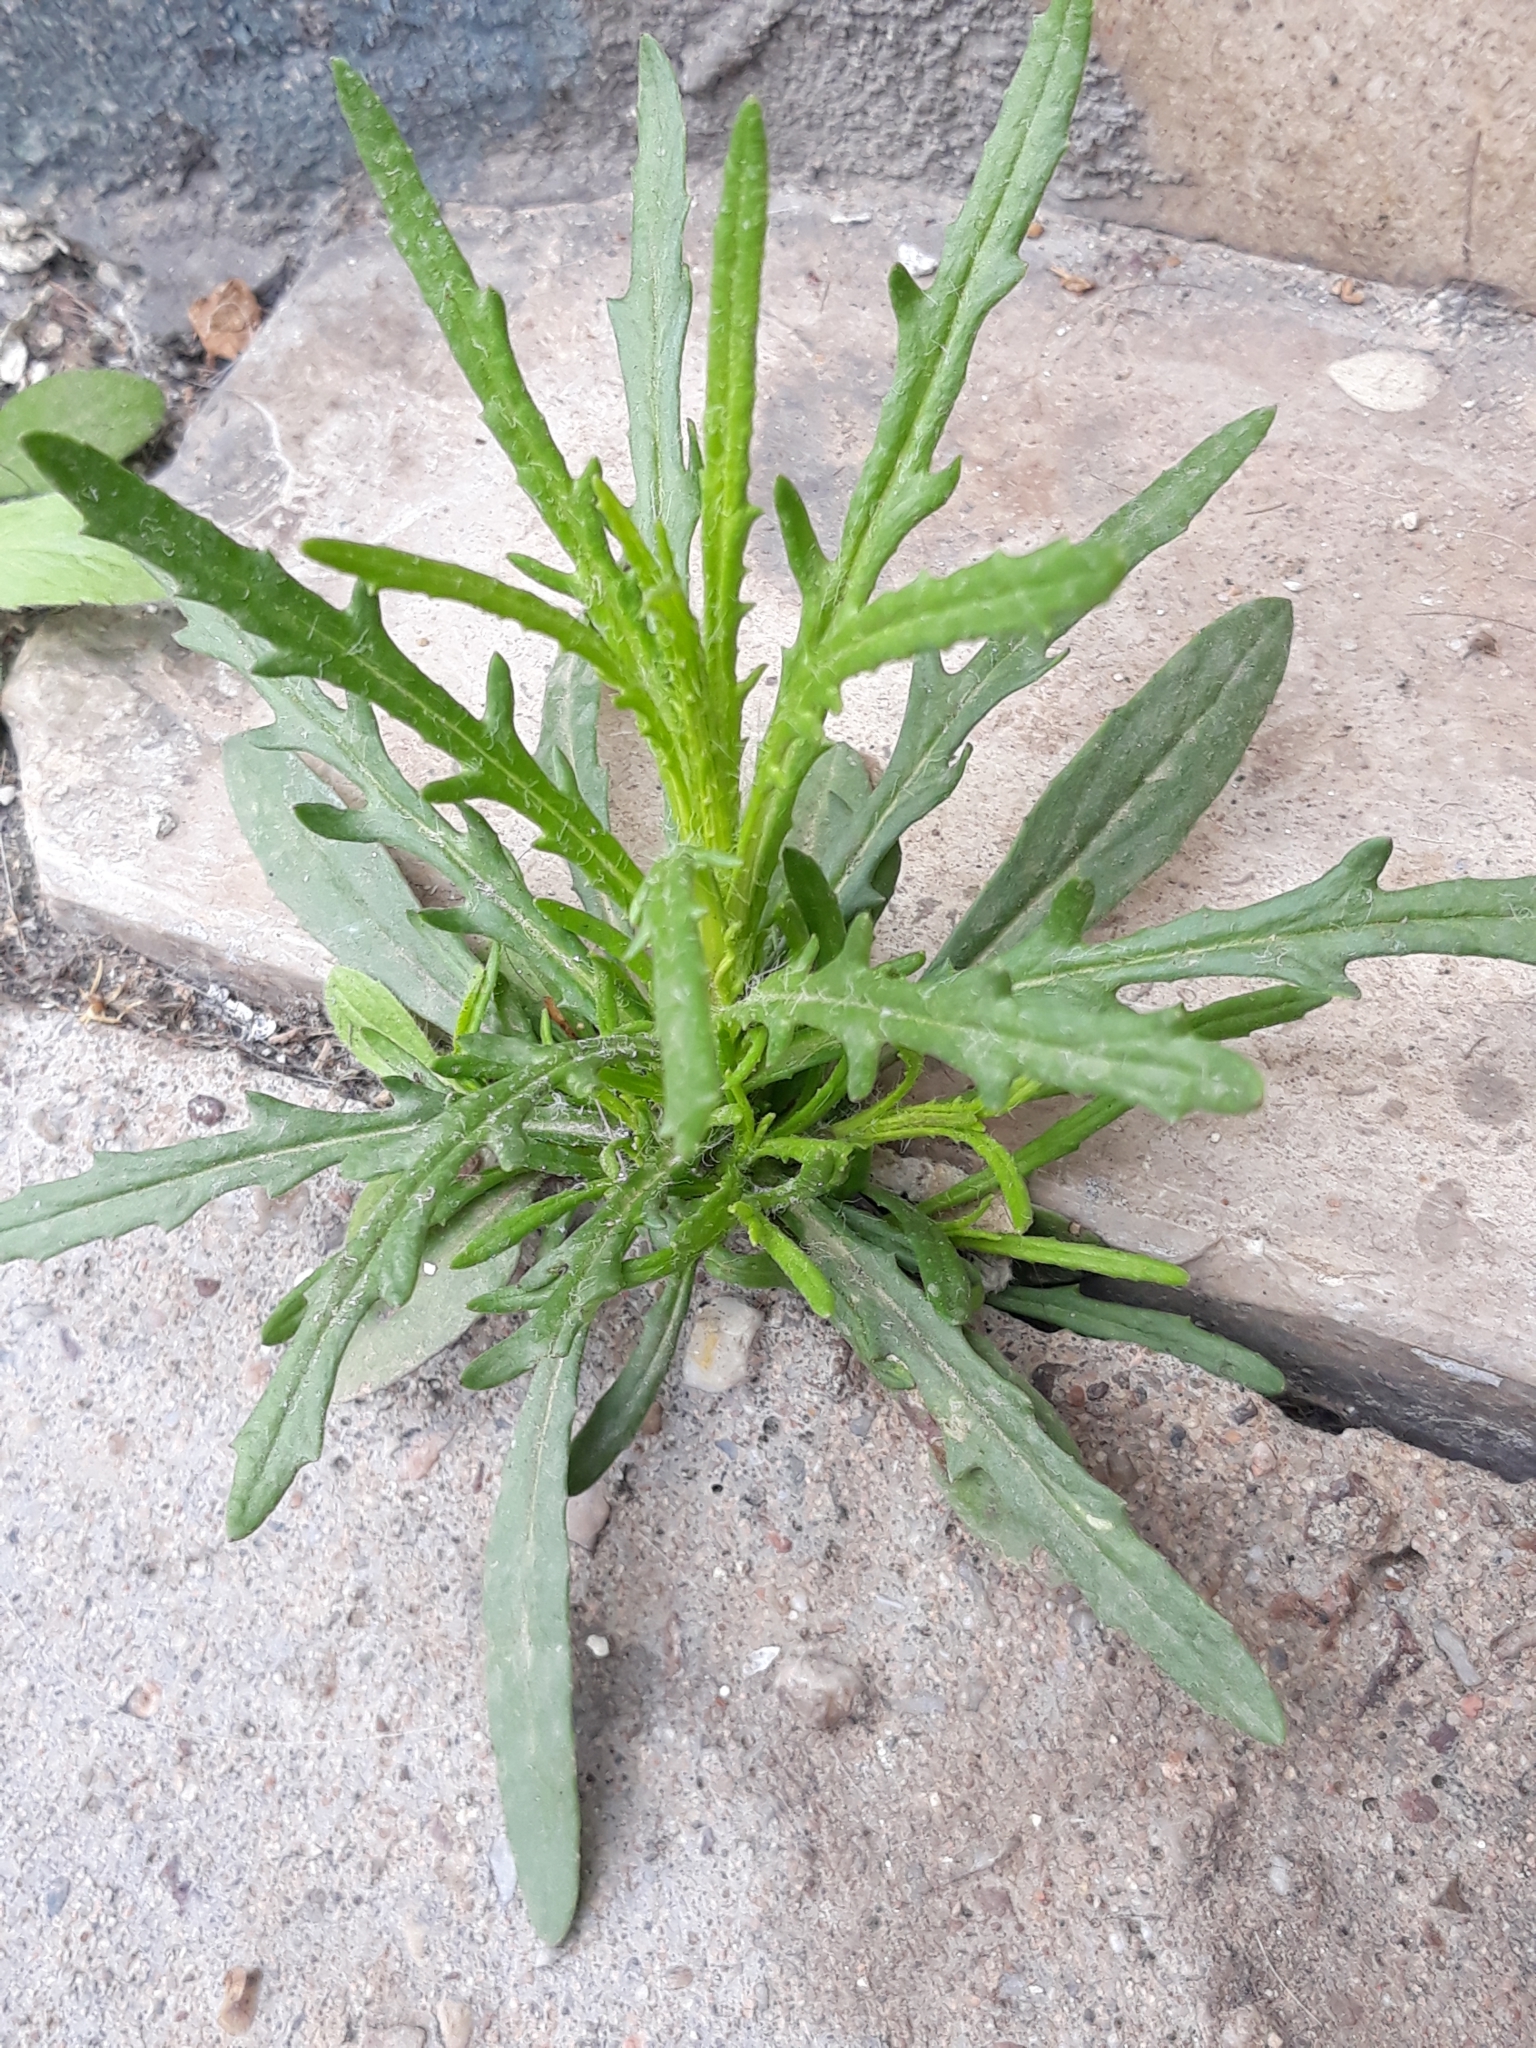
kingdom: Plantae
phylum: Tracheophyta
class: Magnoliopsida
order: Asterales
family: Asteraceae
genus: Senecio
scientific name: Senecio inaequidens
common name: Narrow-leaved ragwort
